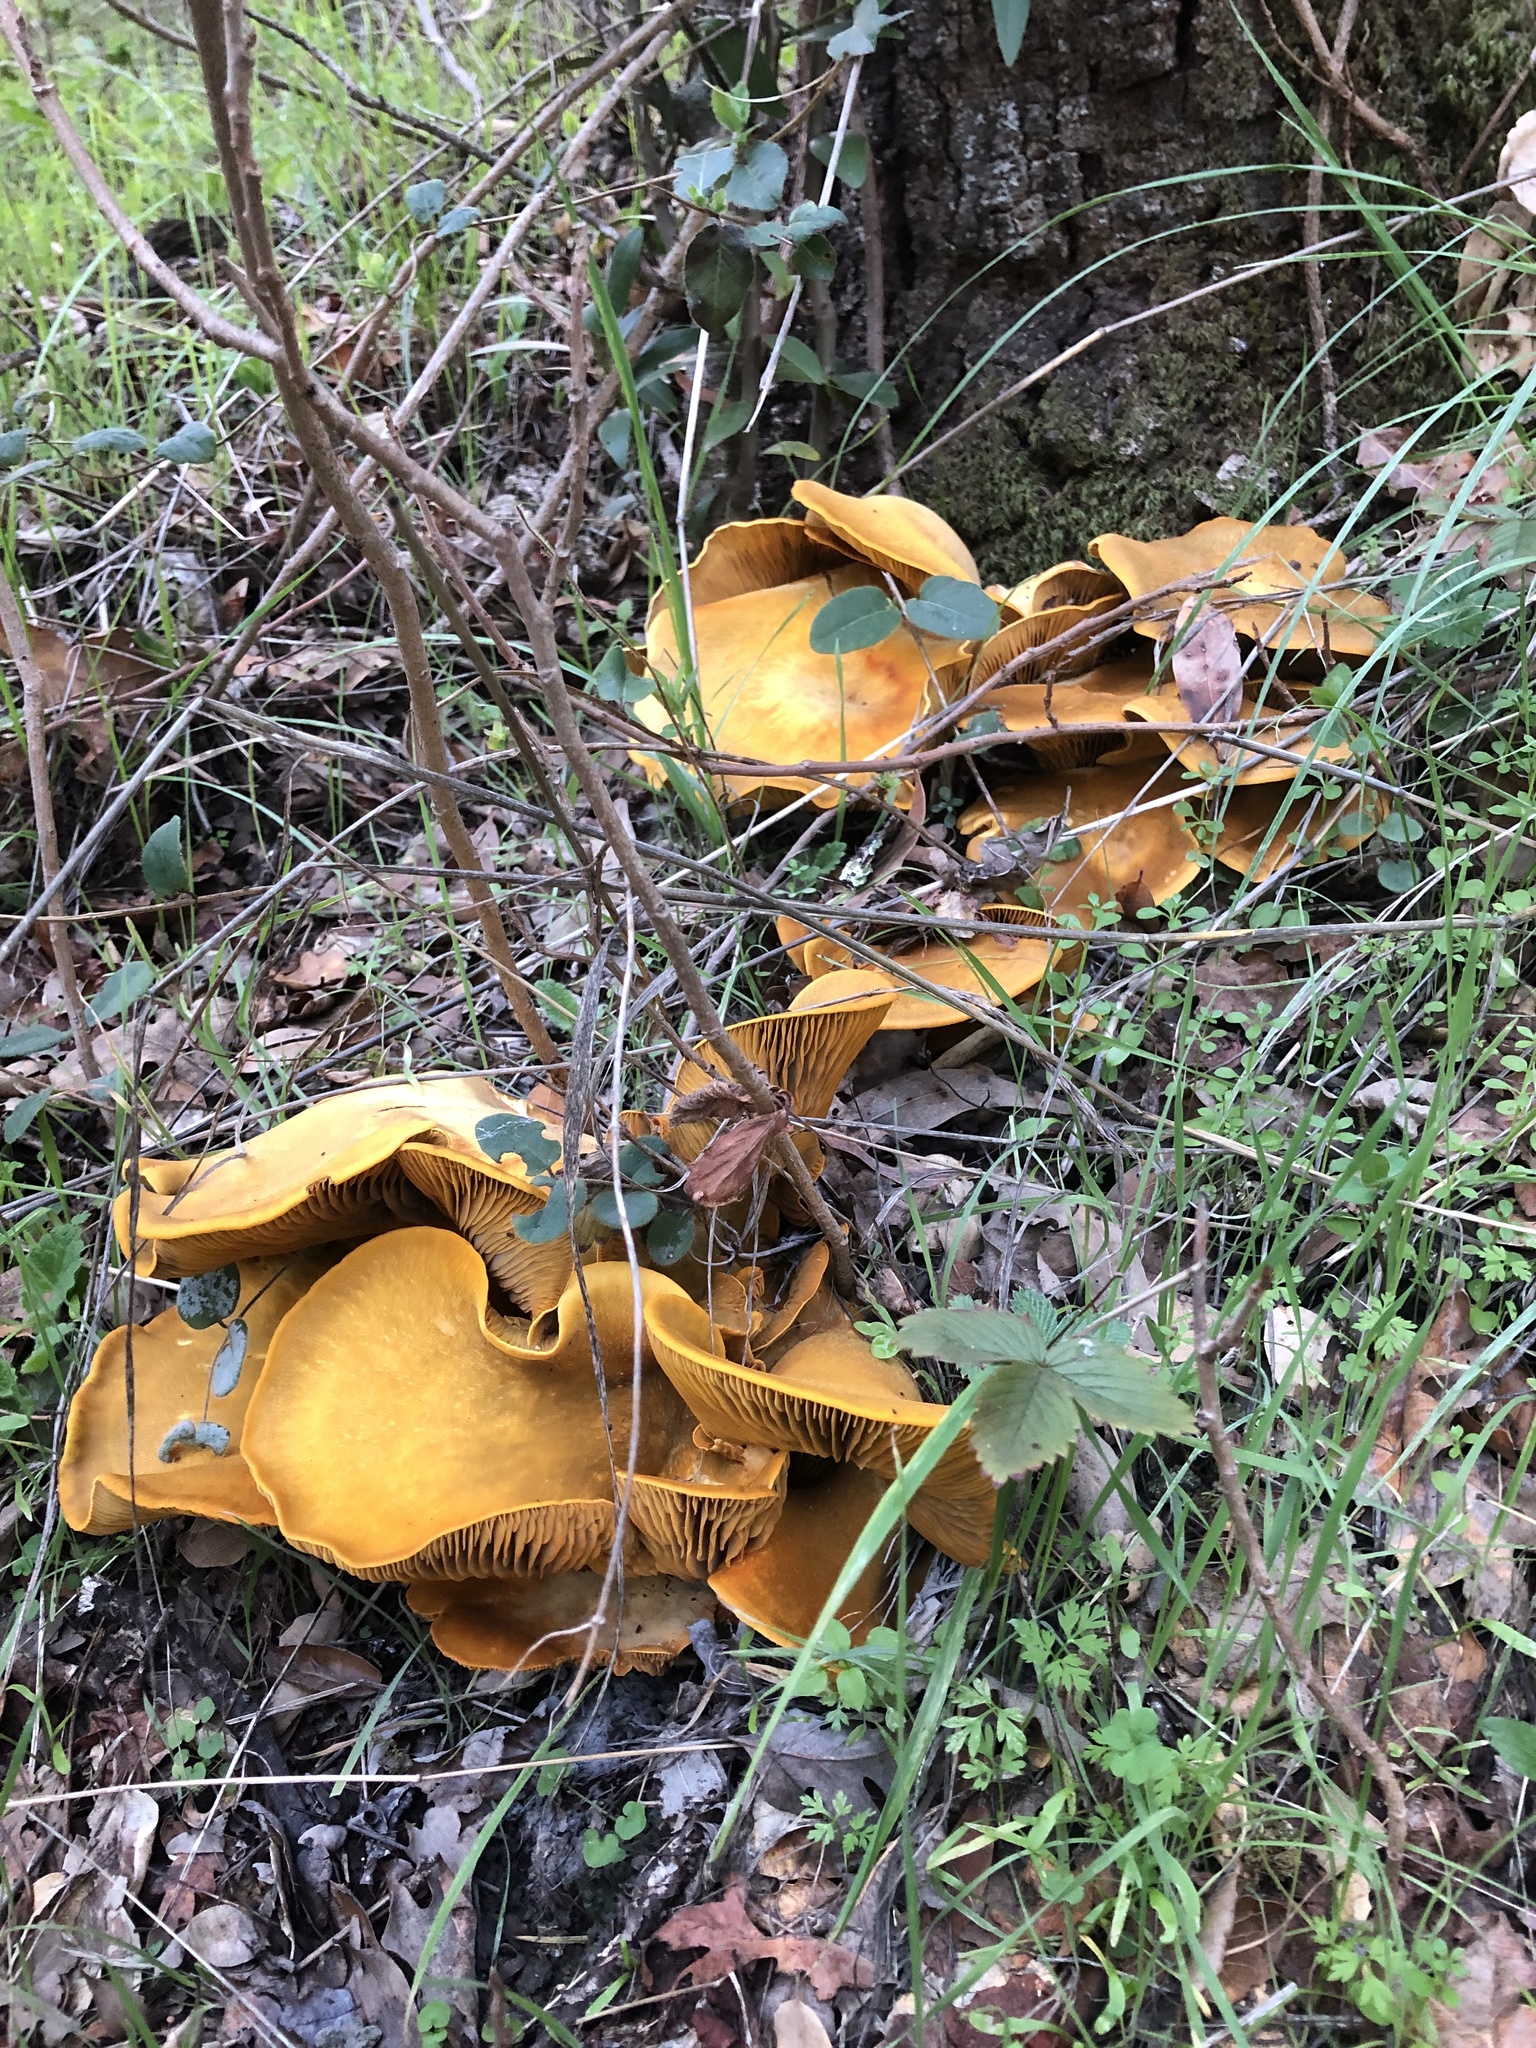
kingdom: Fungi
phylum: Basidiomycota
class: Agaricomycetes
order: Agaricales
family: Omphalotaceae
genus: Omphalotus
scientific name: Omphalotus olivascens
